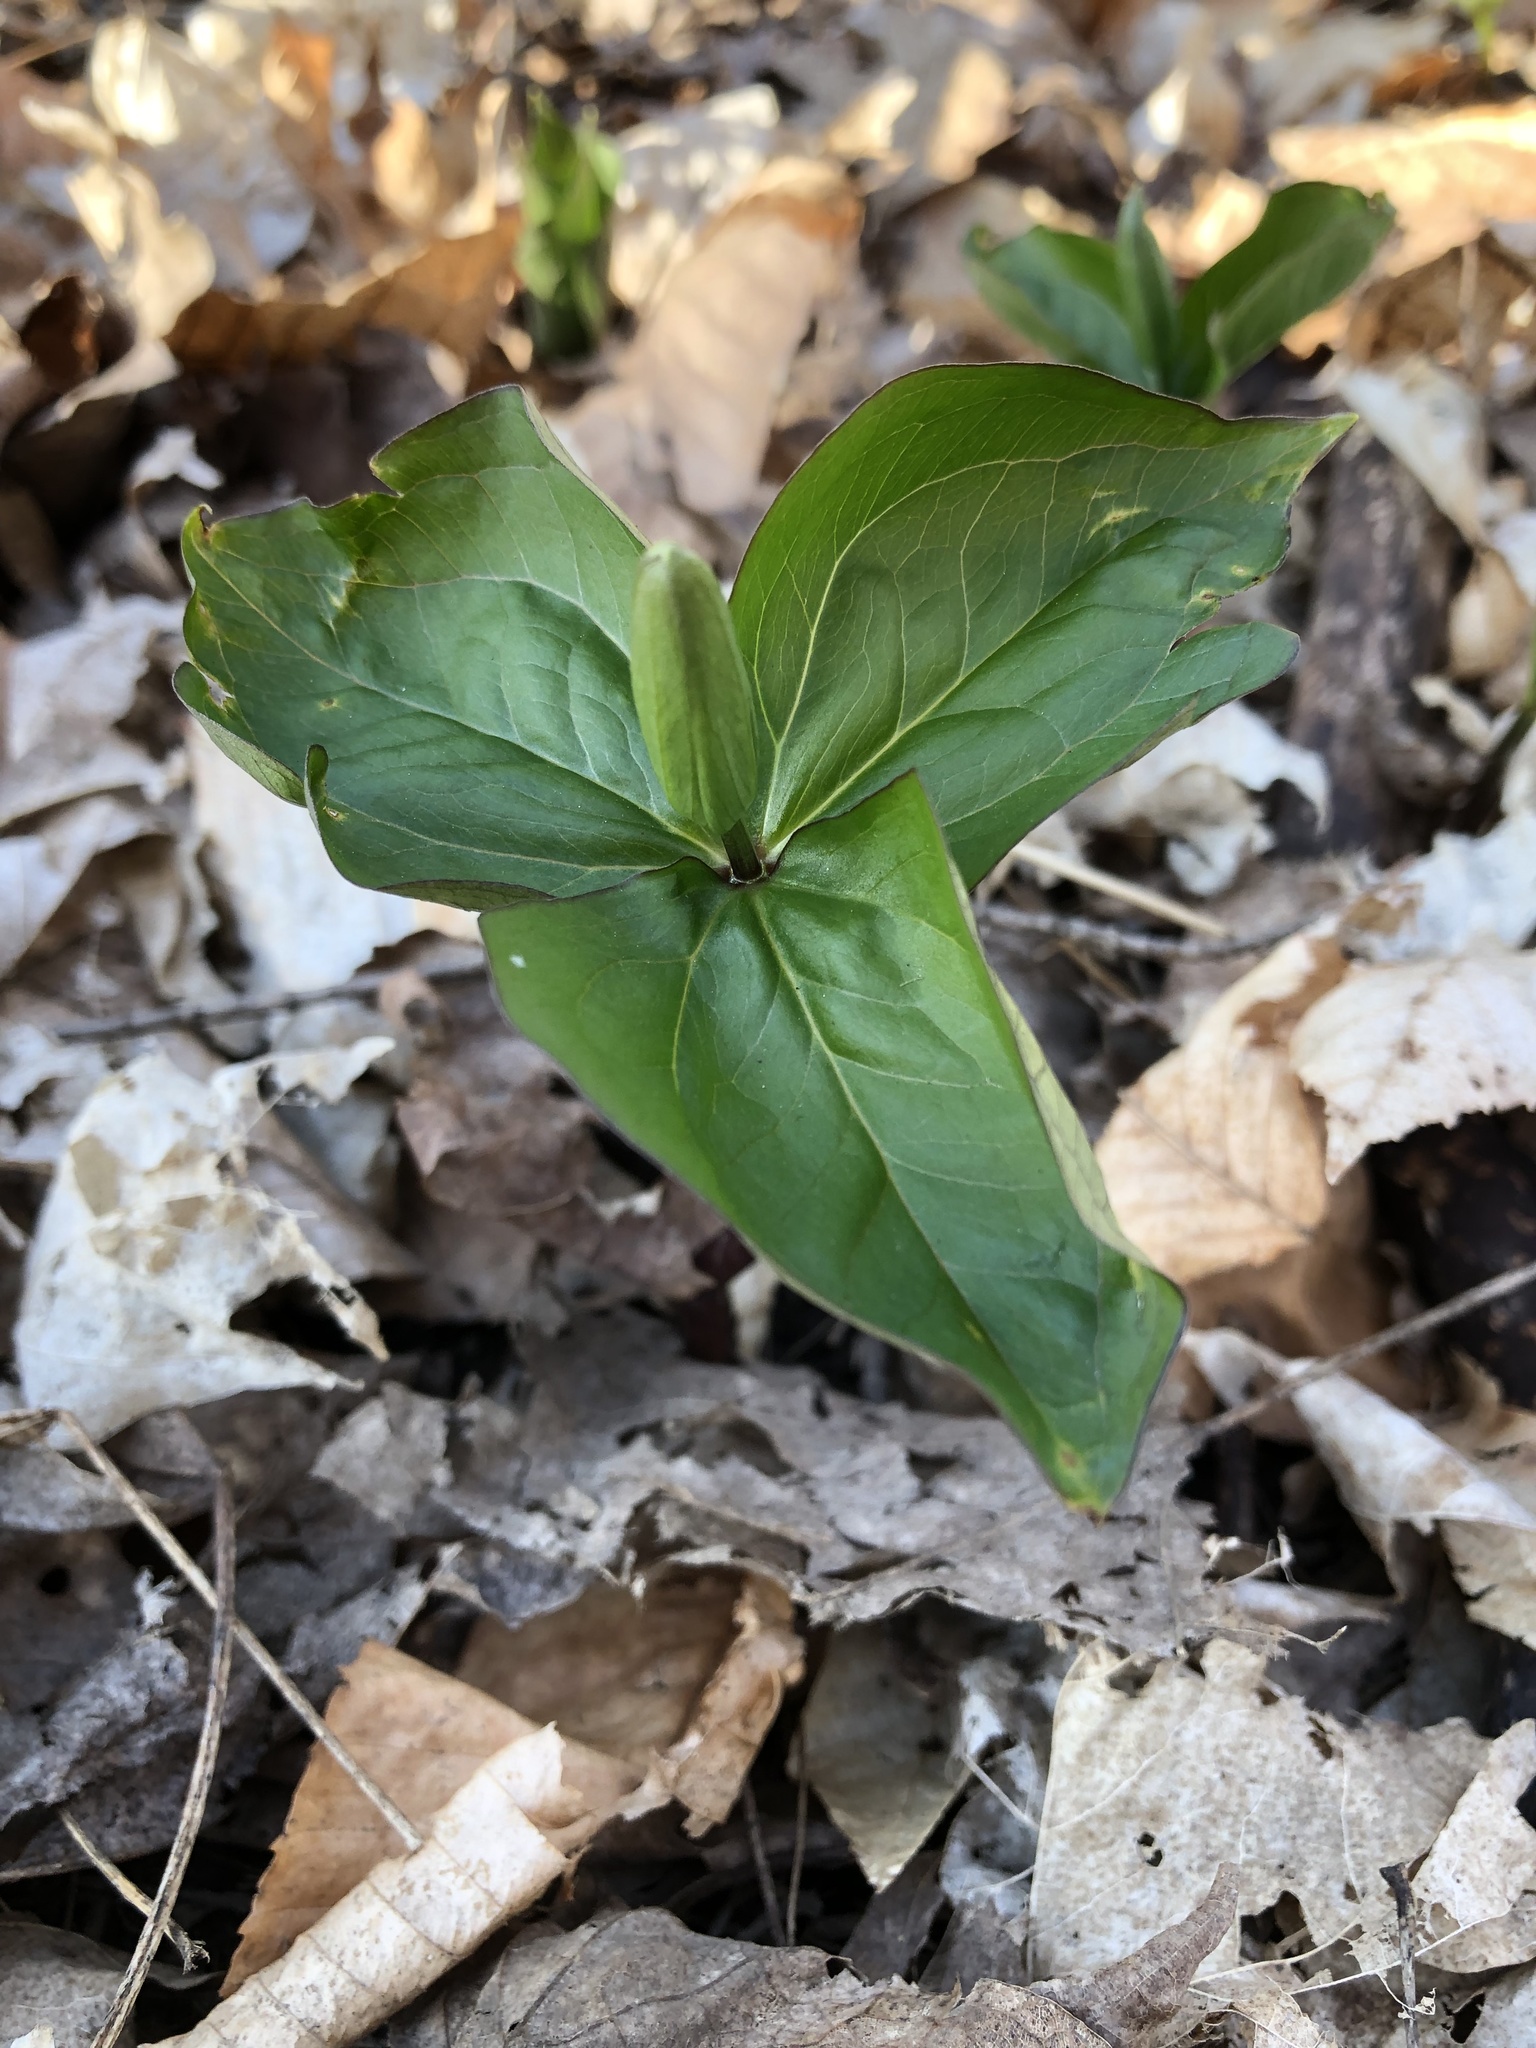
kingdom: Plantae
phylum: Tracheophyta
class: Liliopsida
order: Liliales
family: Melanthiaceae
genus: Trillium
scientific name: Trillium grandiflorum
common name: Great white trillium
